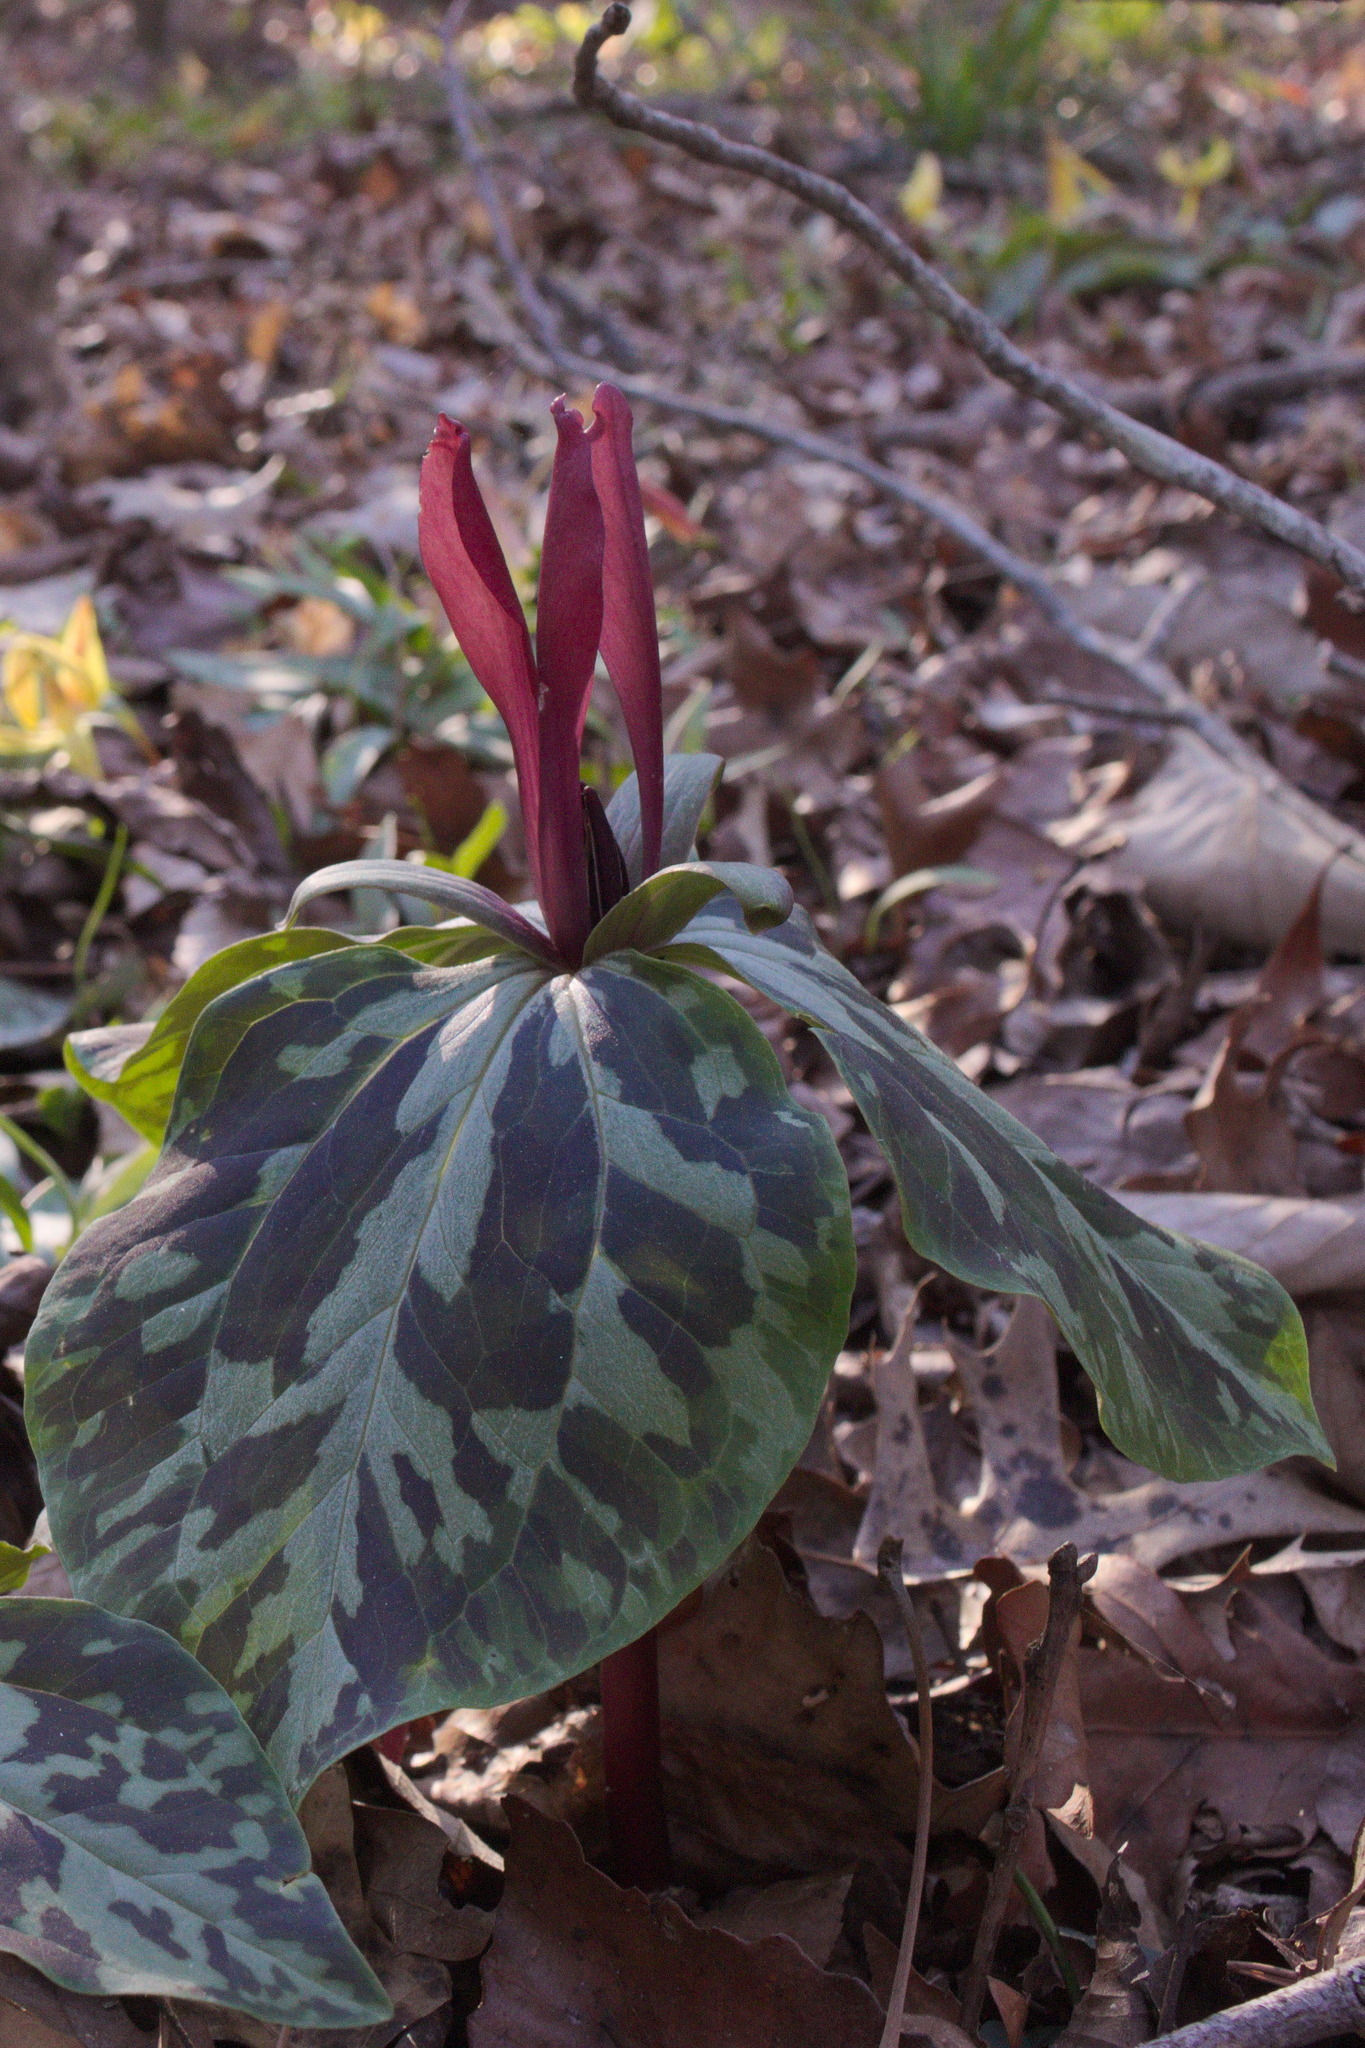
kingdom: Plantae
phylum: Tracheophyta
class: Liliopsida
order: Liliales
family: Melanthiaceae
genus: Trillium
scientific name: Trillium maculatum
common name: Mottled trillium
